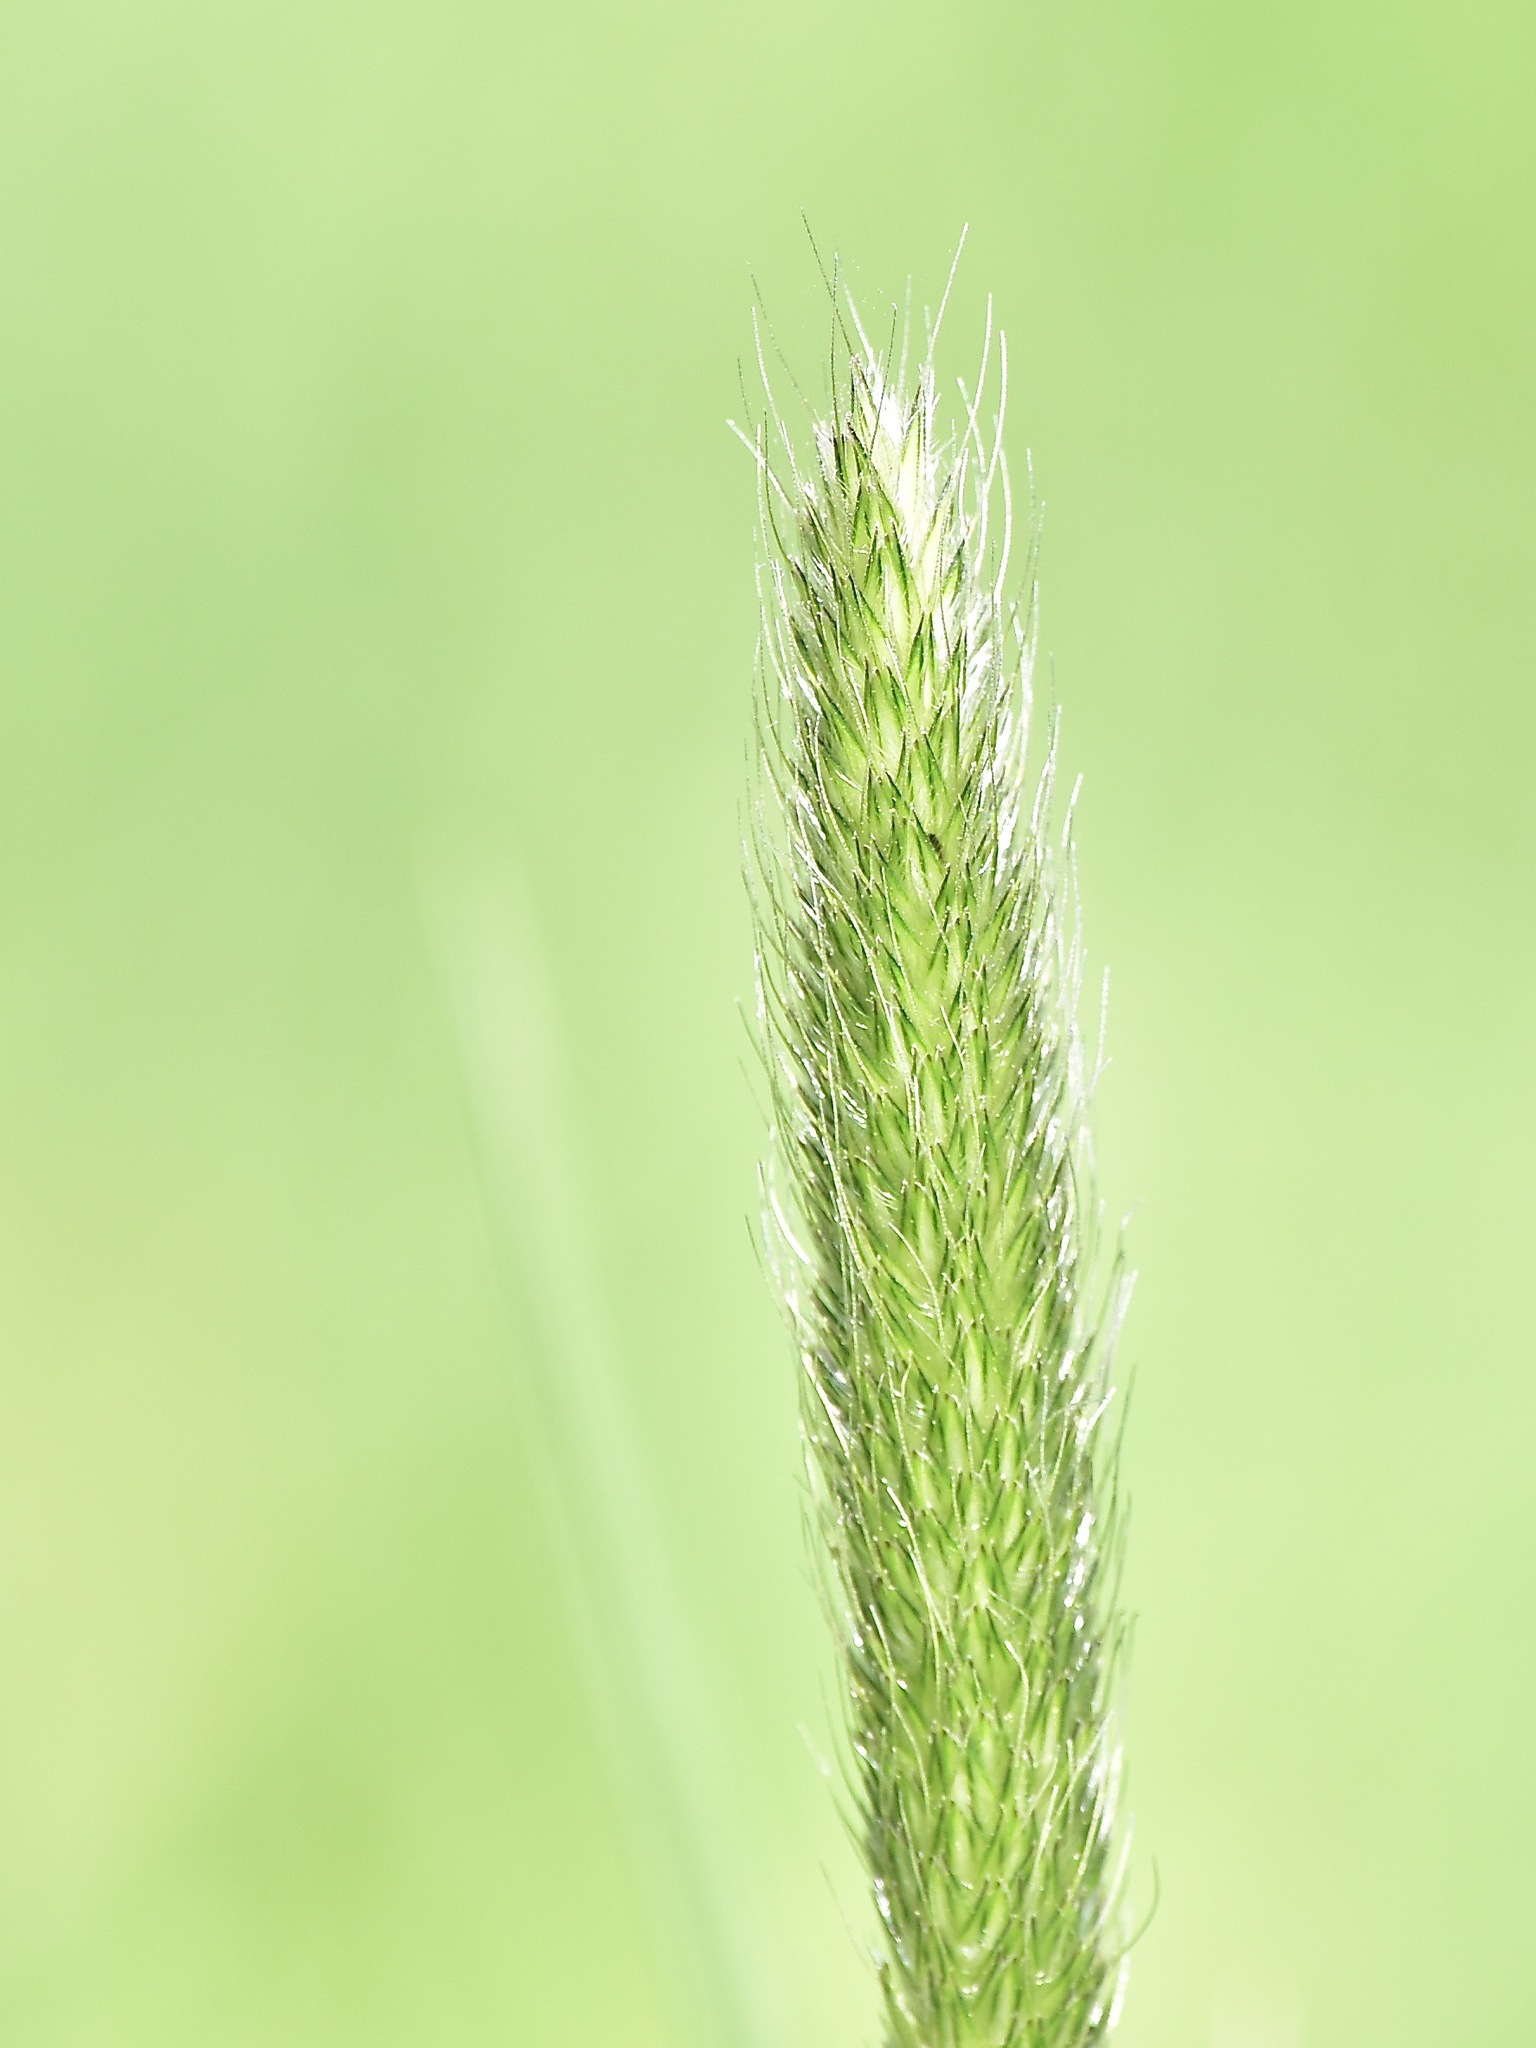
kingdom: Plantae
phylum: Tracheophyta
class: Liliopsida
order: Poales
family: Poaceae
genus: Alopecurus
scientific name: Alopecurus pratensis
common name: Meadow foxtail
